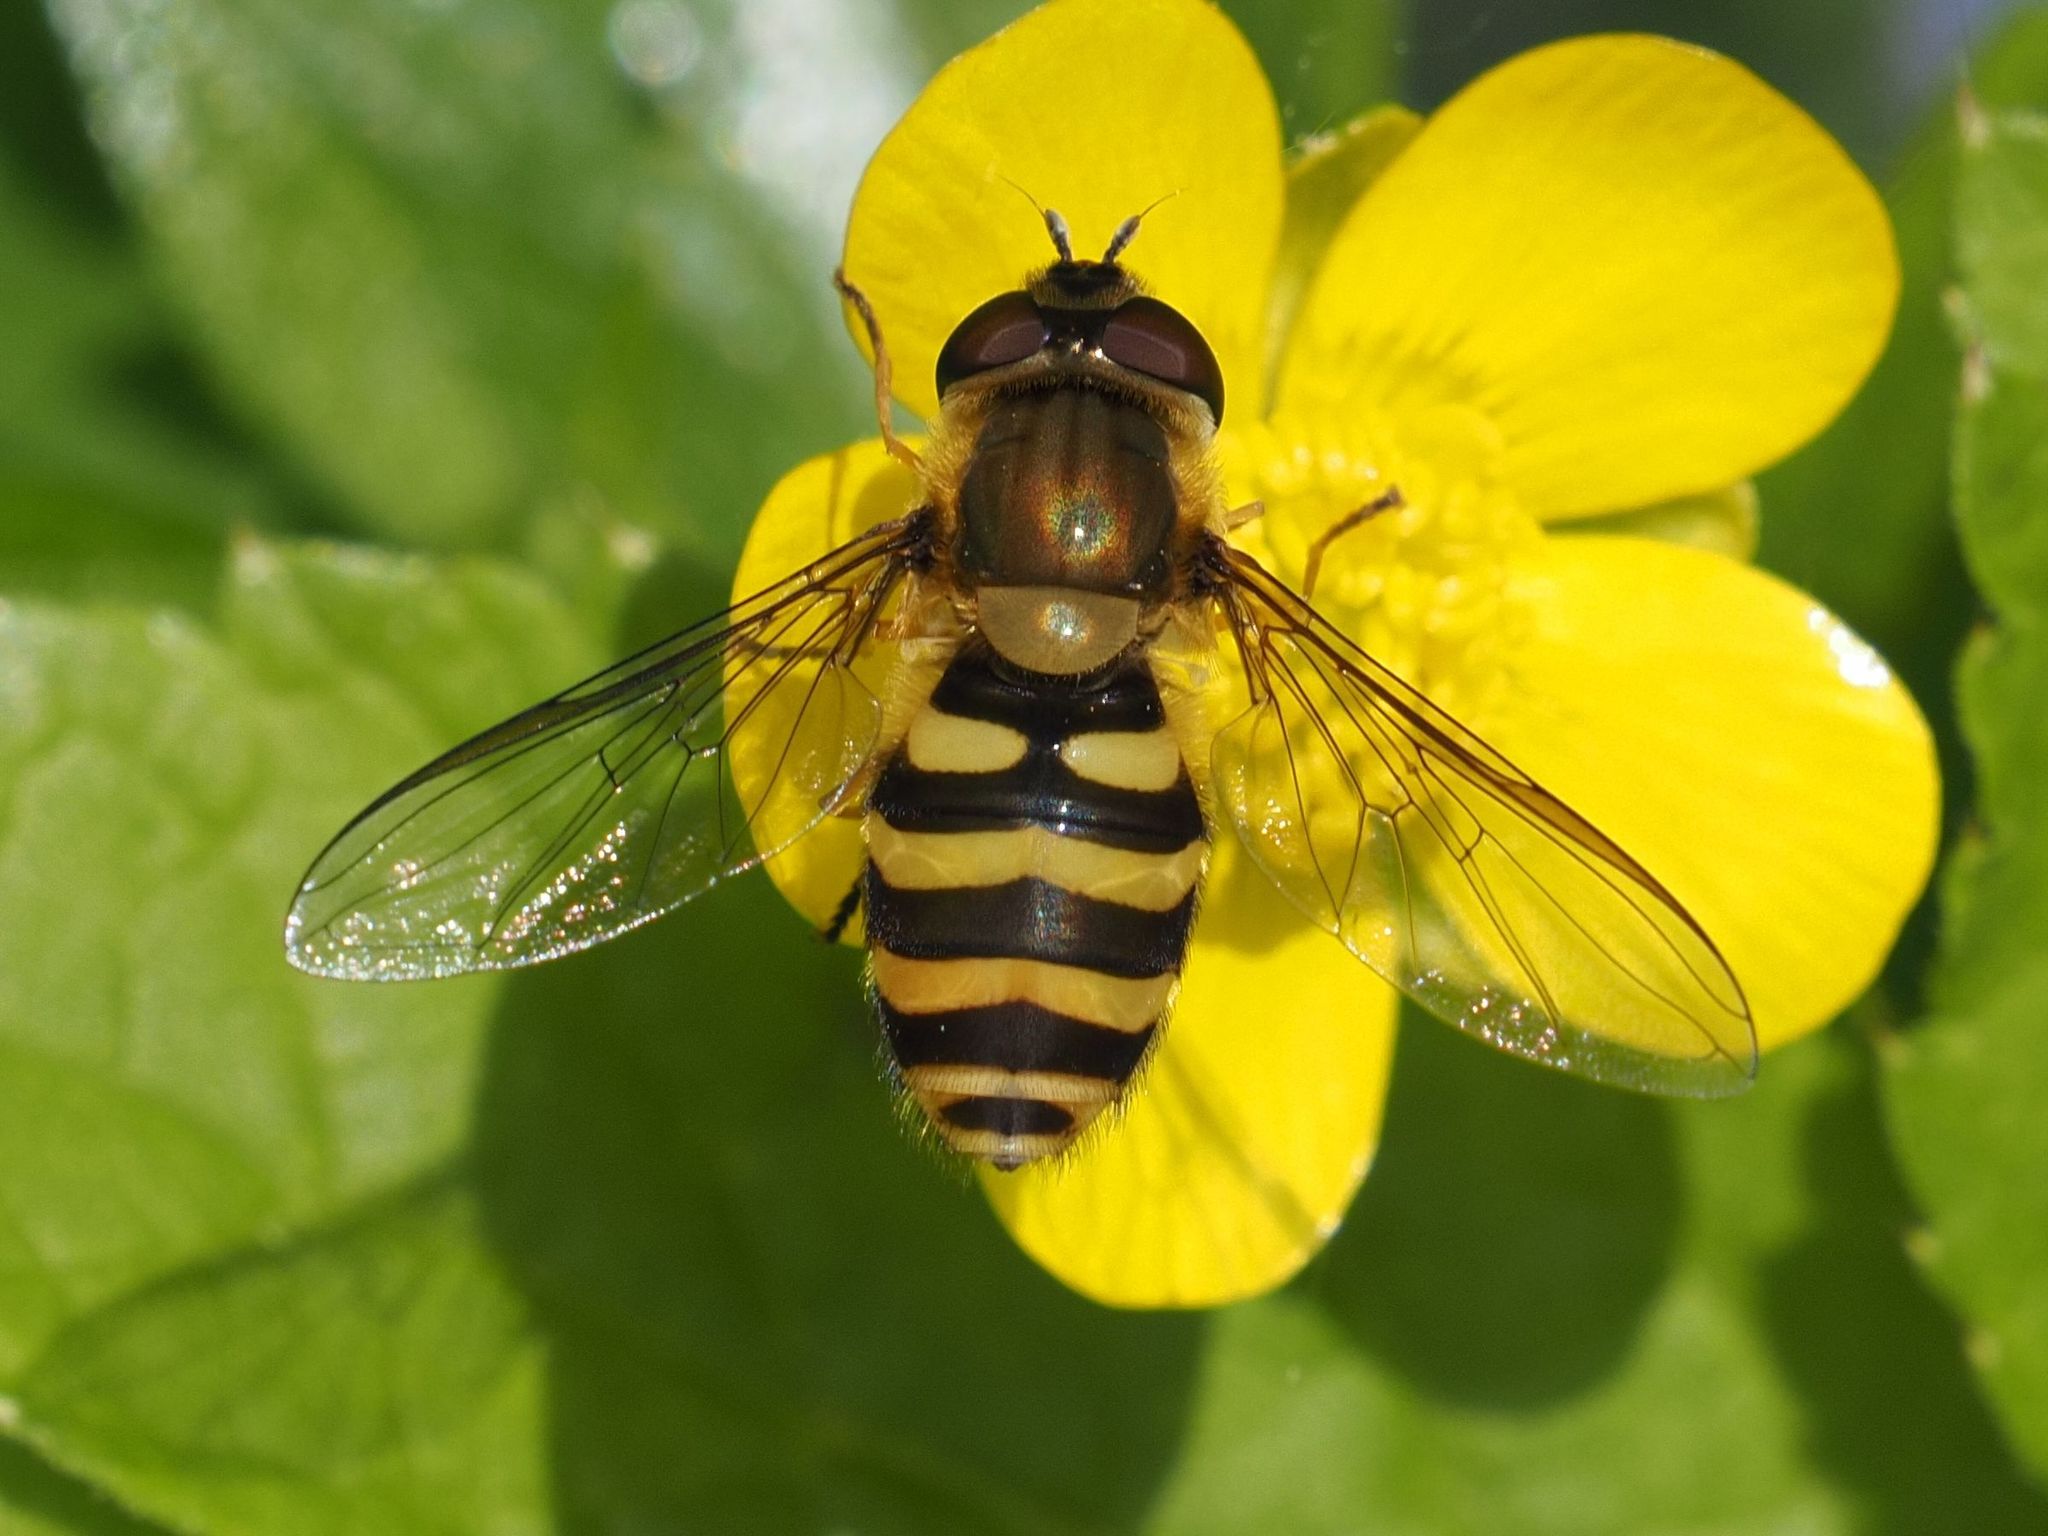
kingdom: Animalia
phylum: Arthropoda
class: Insecta
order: Diptera
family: Syrphidae
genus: Syrphus
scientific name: Syrphus
